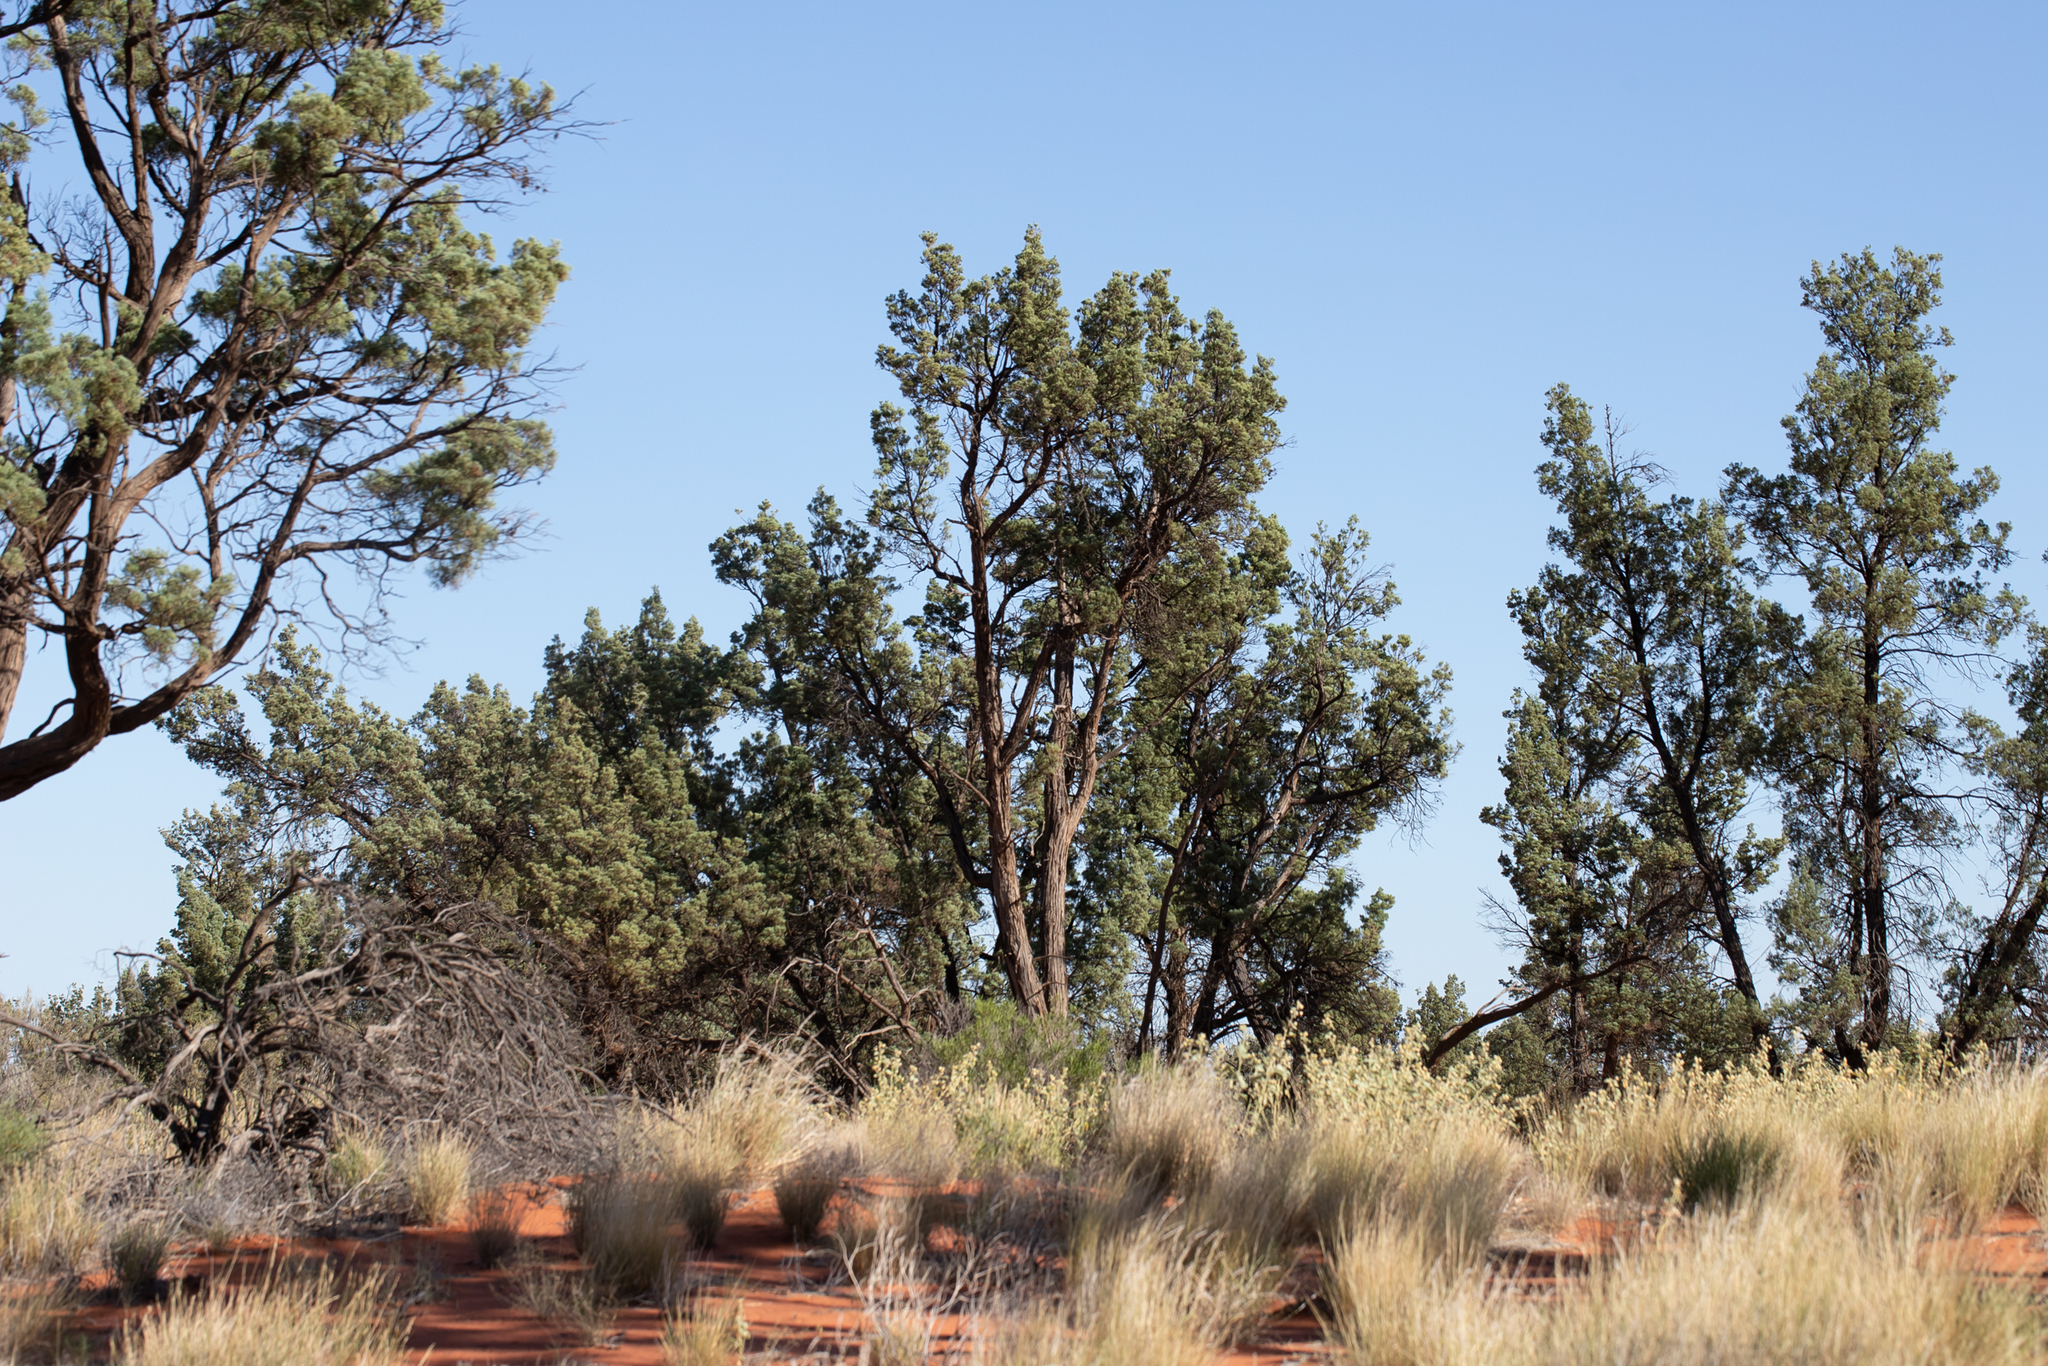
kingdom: Plantae
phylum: Tracheophyta
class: Pinopsida
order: Pinales
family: Cupressaceae
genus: Callitris
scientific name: Callitris columellaris
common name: White cypress-pine
